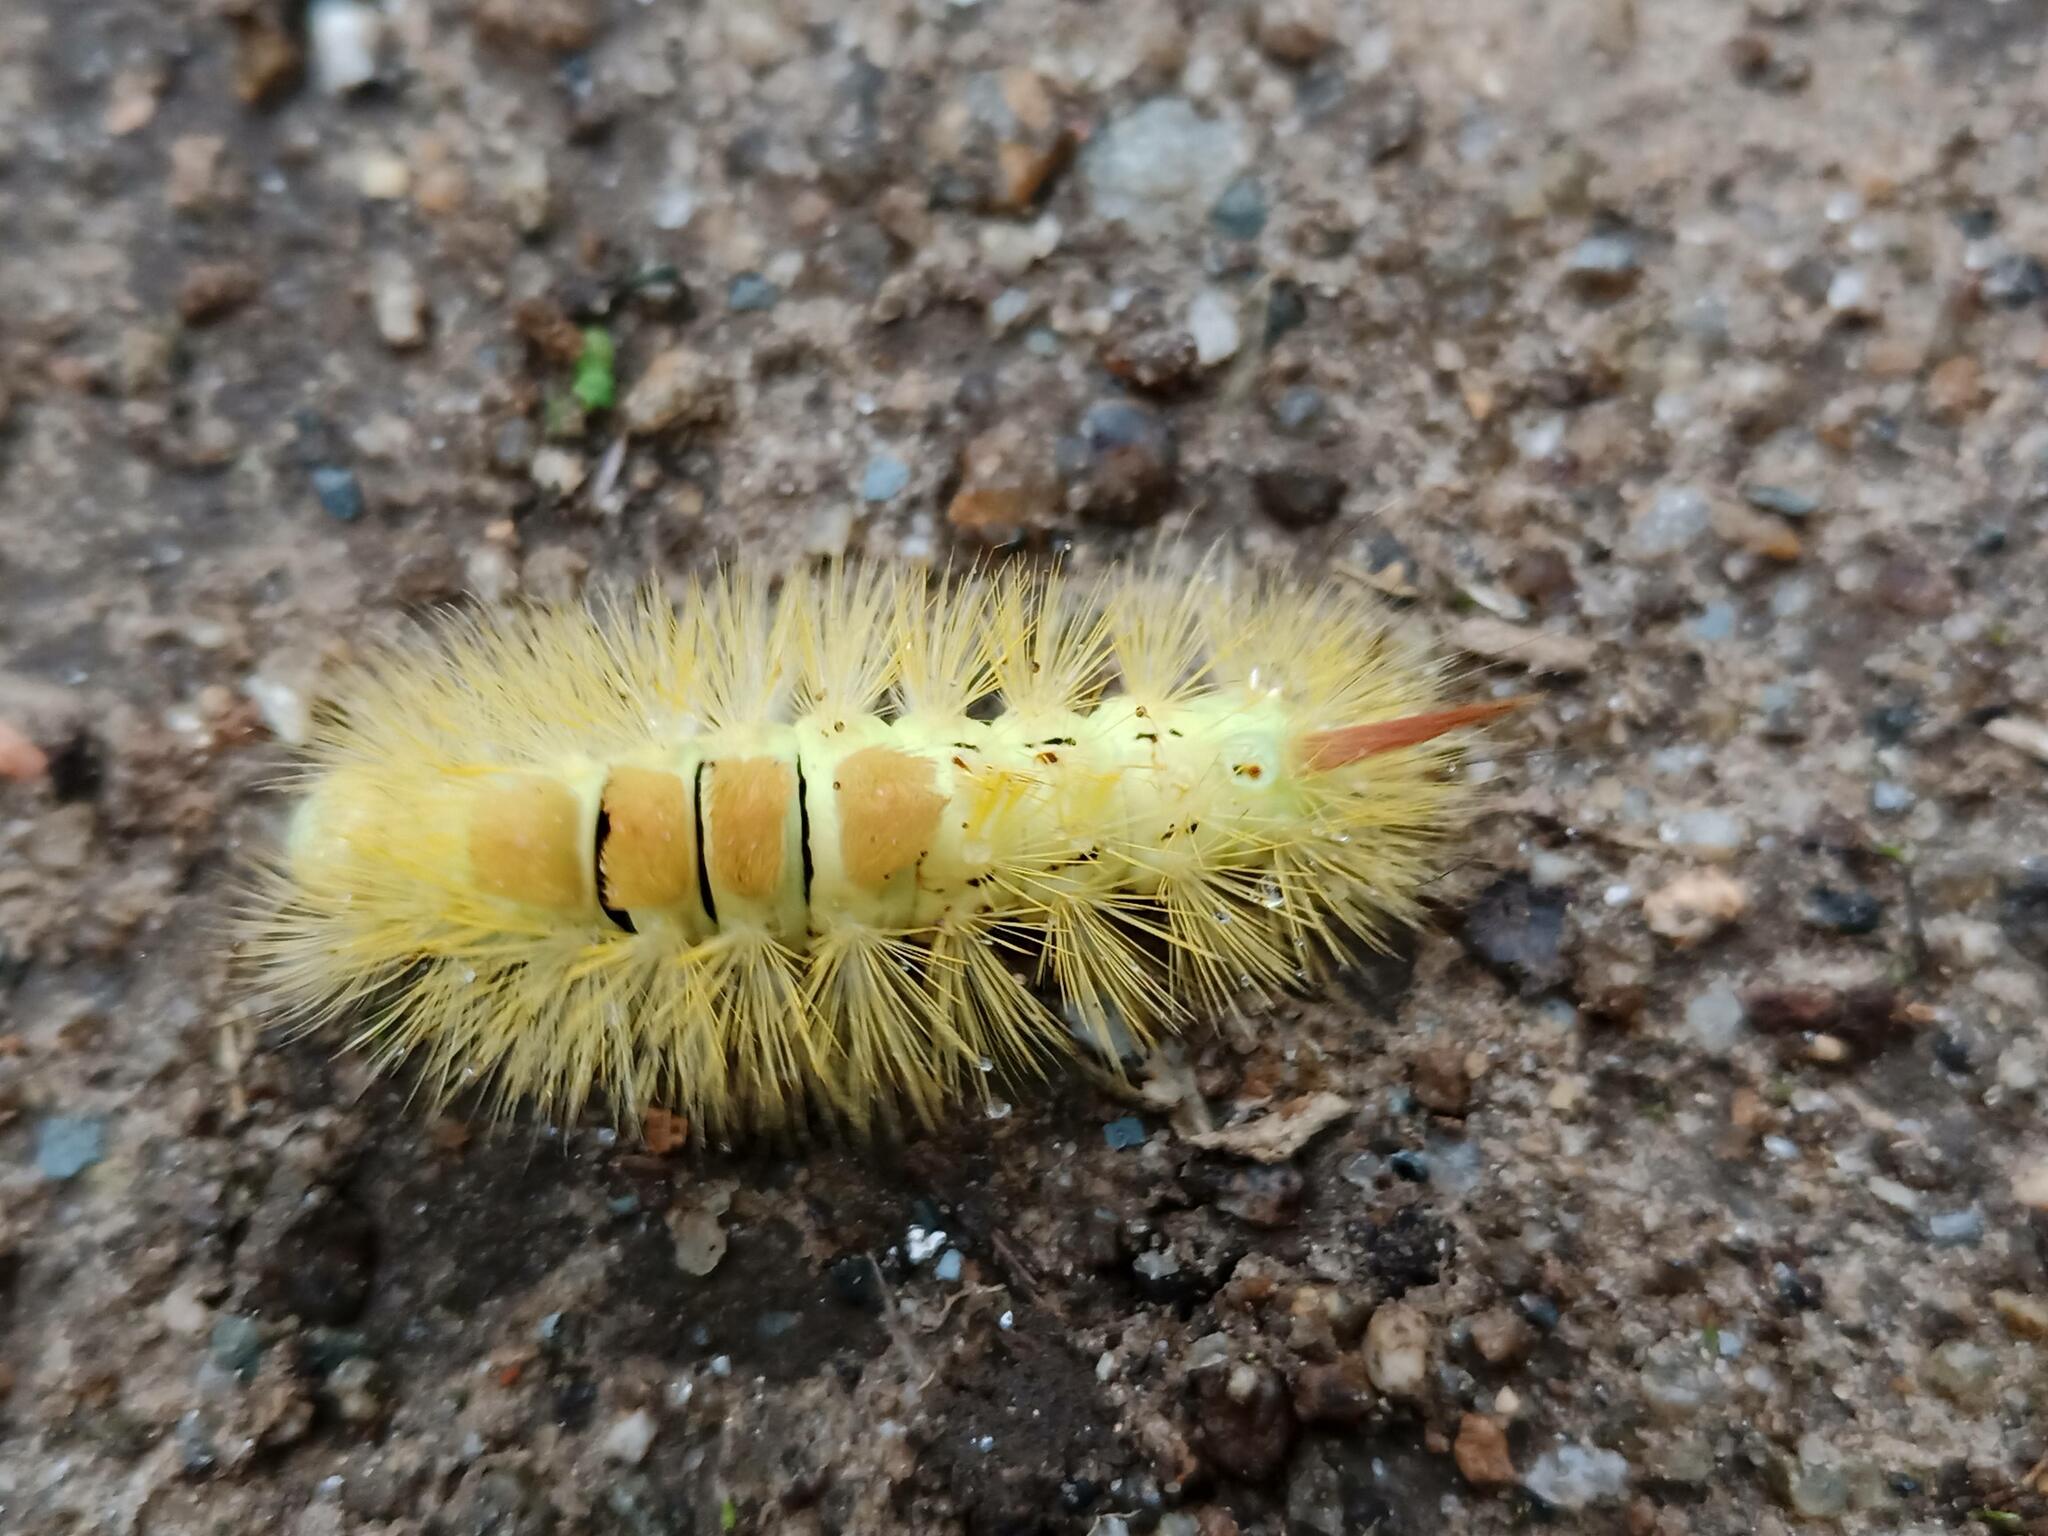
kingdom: Animalia
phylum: Arthropoda
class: Insecta
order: Lepidoptera
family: Erebidae
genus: Calliteara
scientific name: Calliteara pudibunda
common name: Pale tussock
